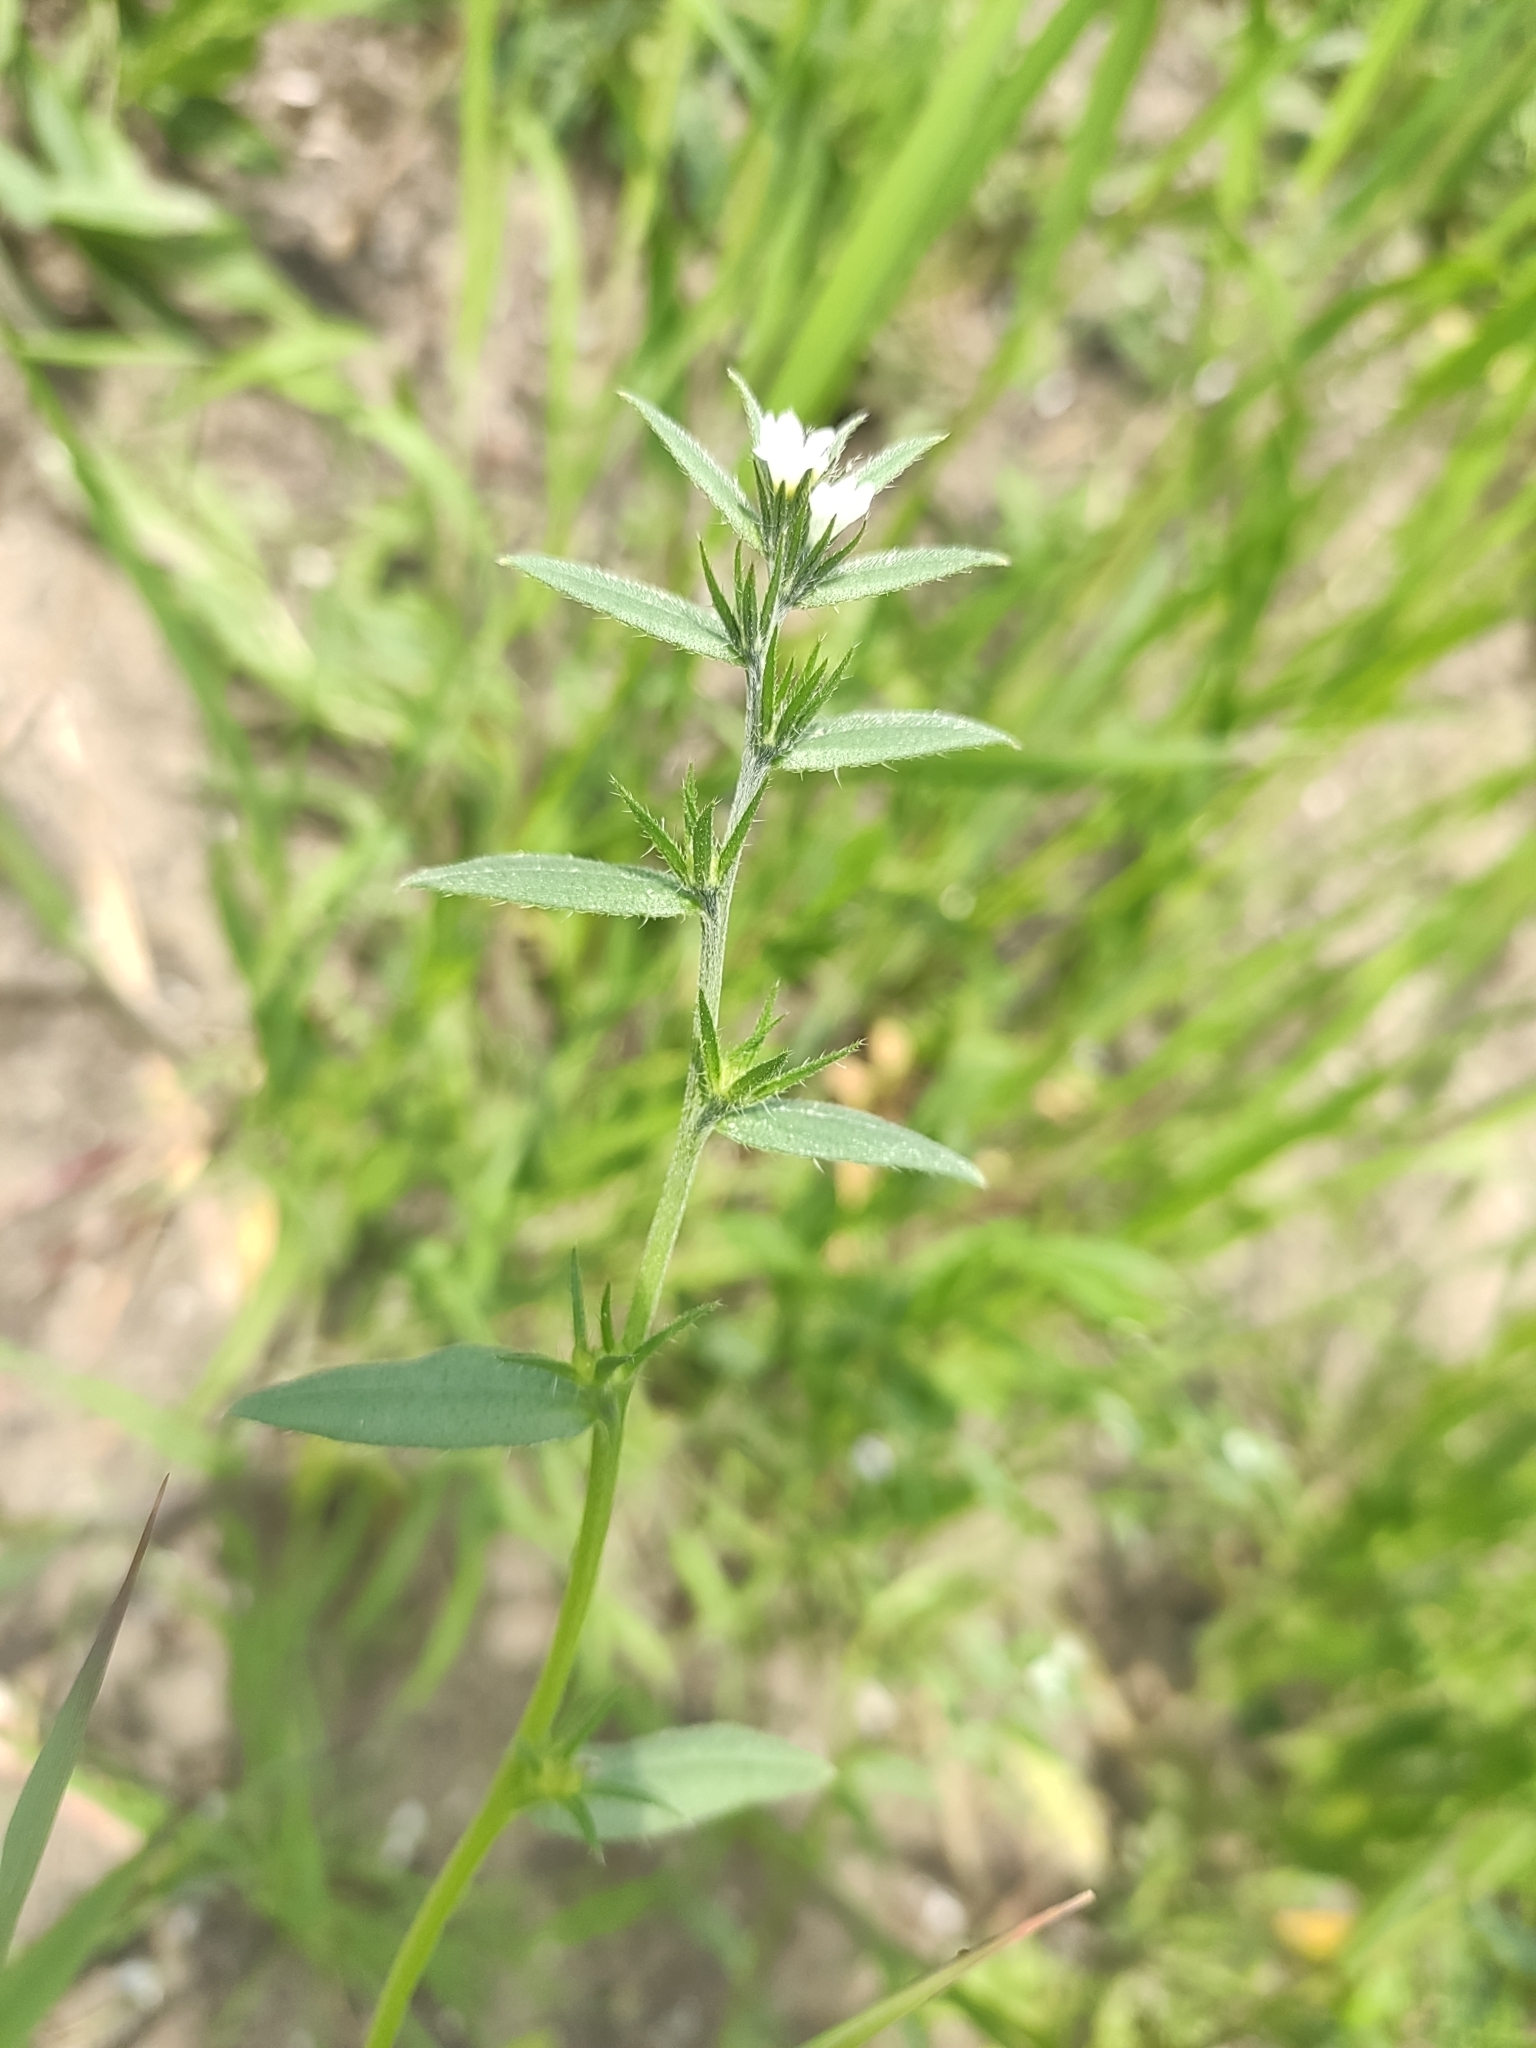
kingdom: Plantae
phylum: Tracheophyta
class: Magnoliopsida
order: Boraginales
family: Boraginaceae
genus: Buglossoides
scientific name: Buglossoides arvensis
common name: Corn gromwell
